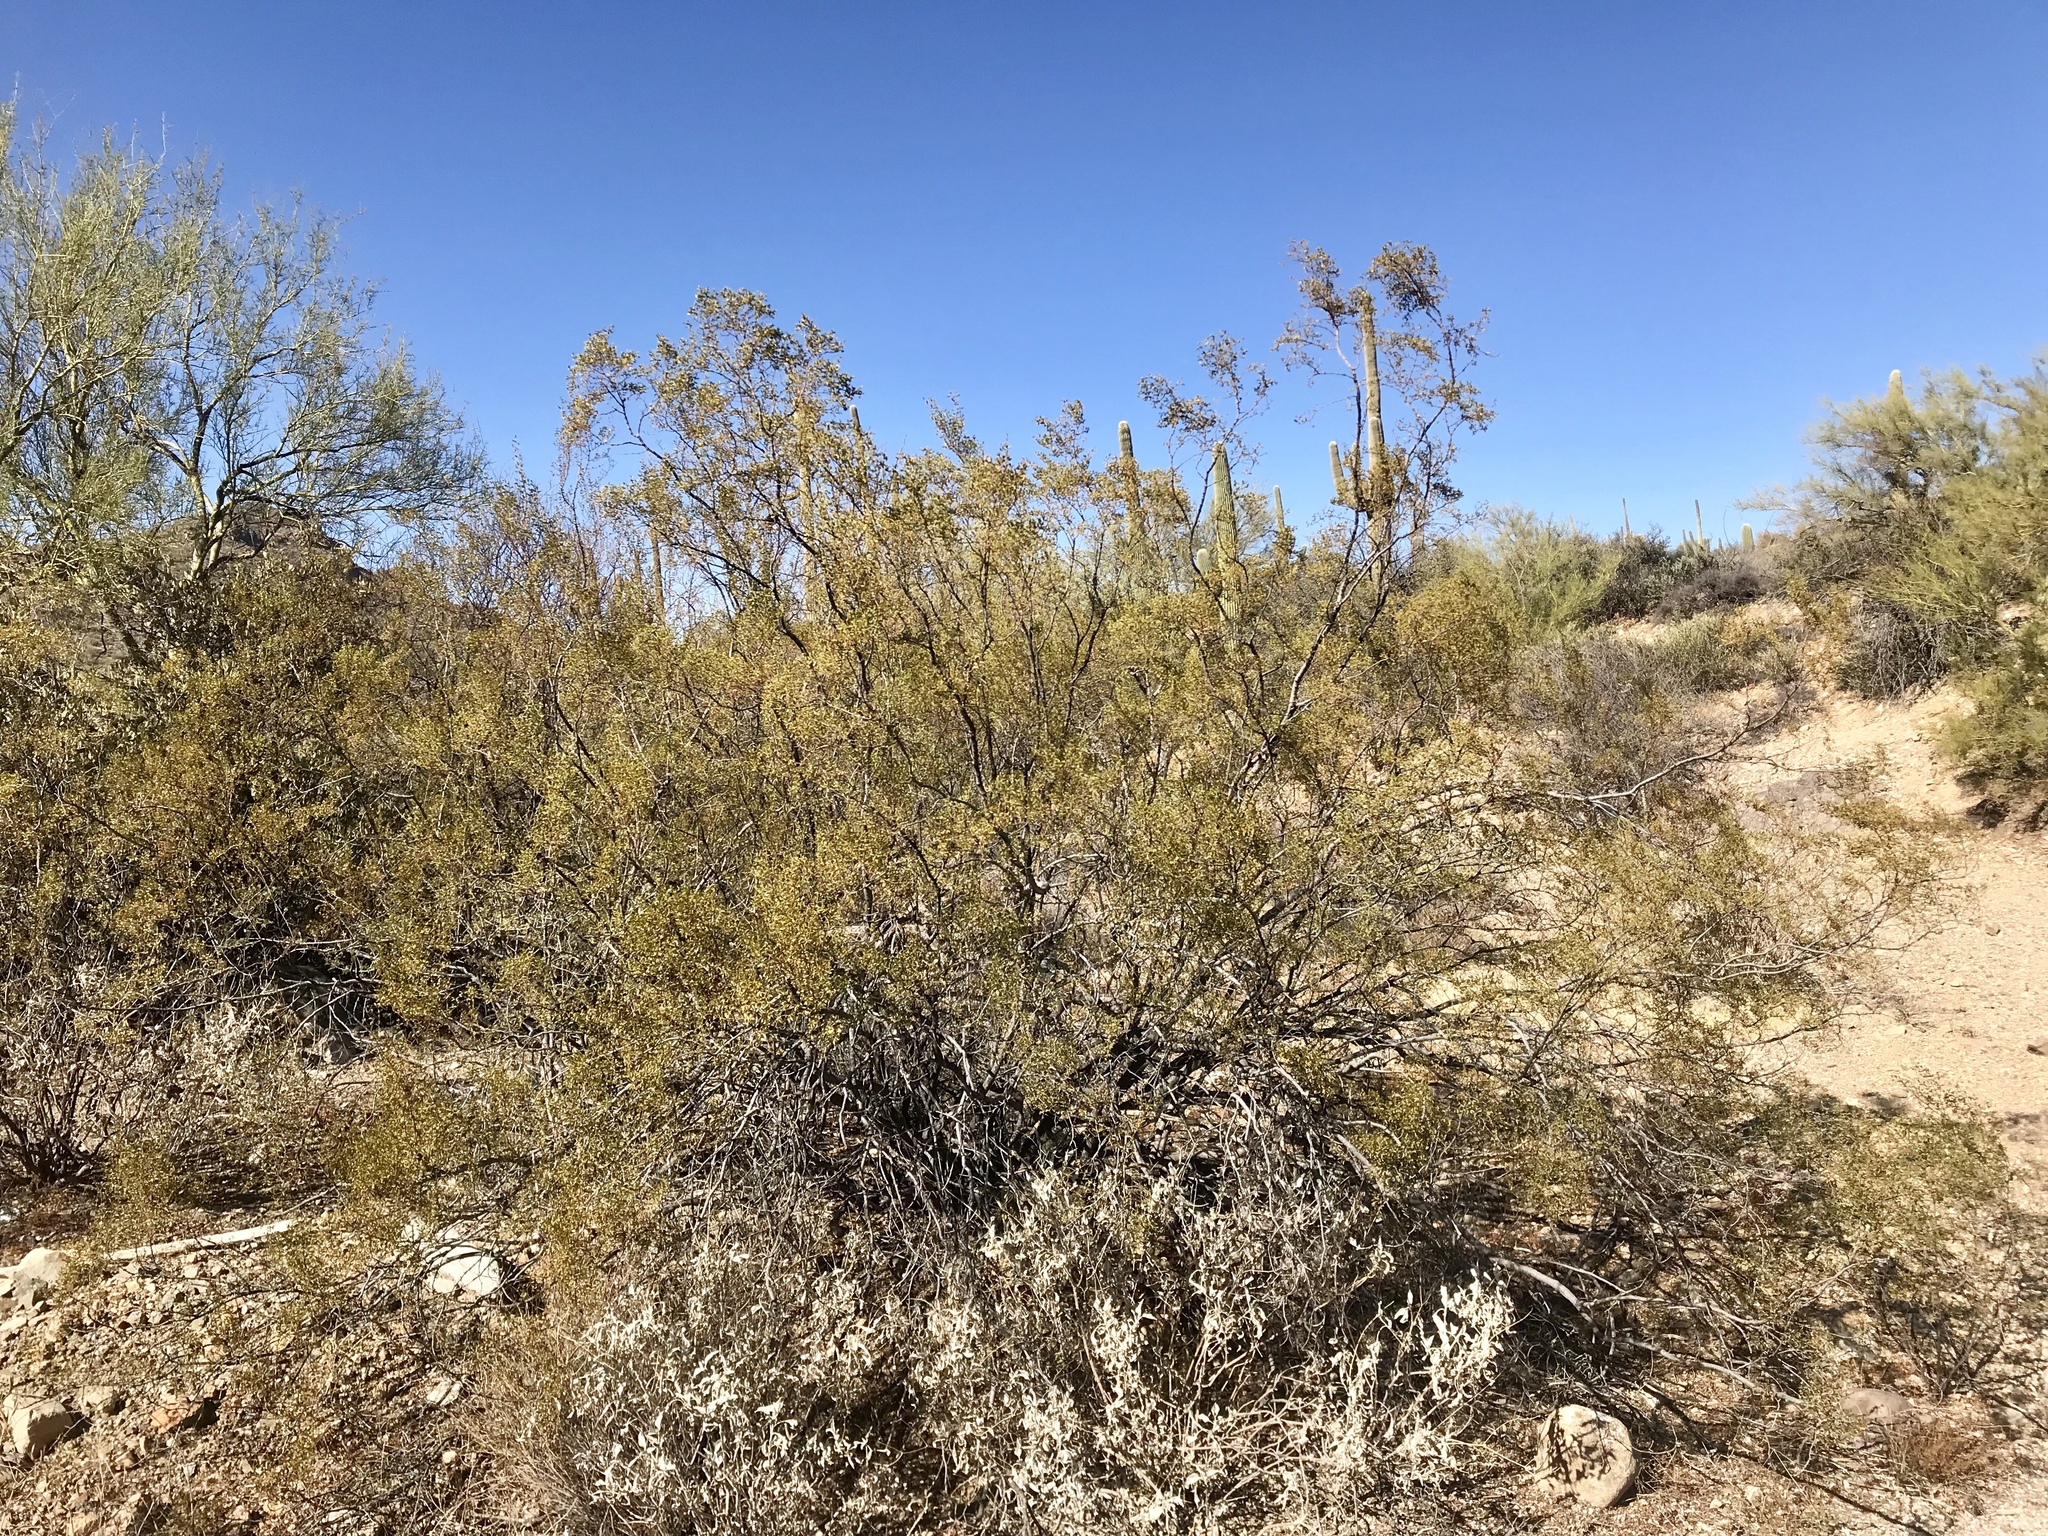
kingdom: Plantae
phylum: Tracheophyta
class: Magnoliopsida
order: Zygophyllales
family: Zygophyllaceae
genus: Larrea
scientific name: Larrea tridentata
